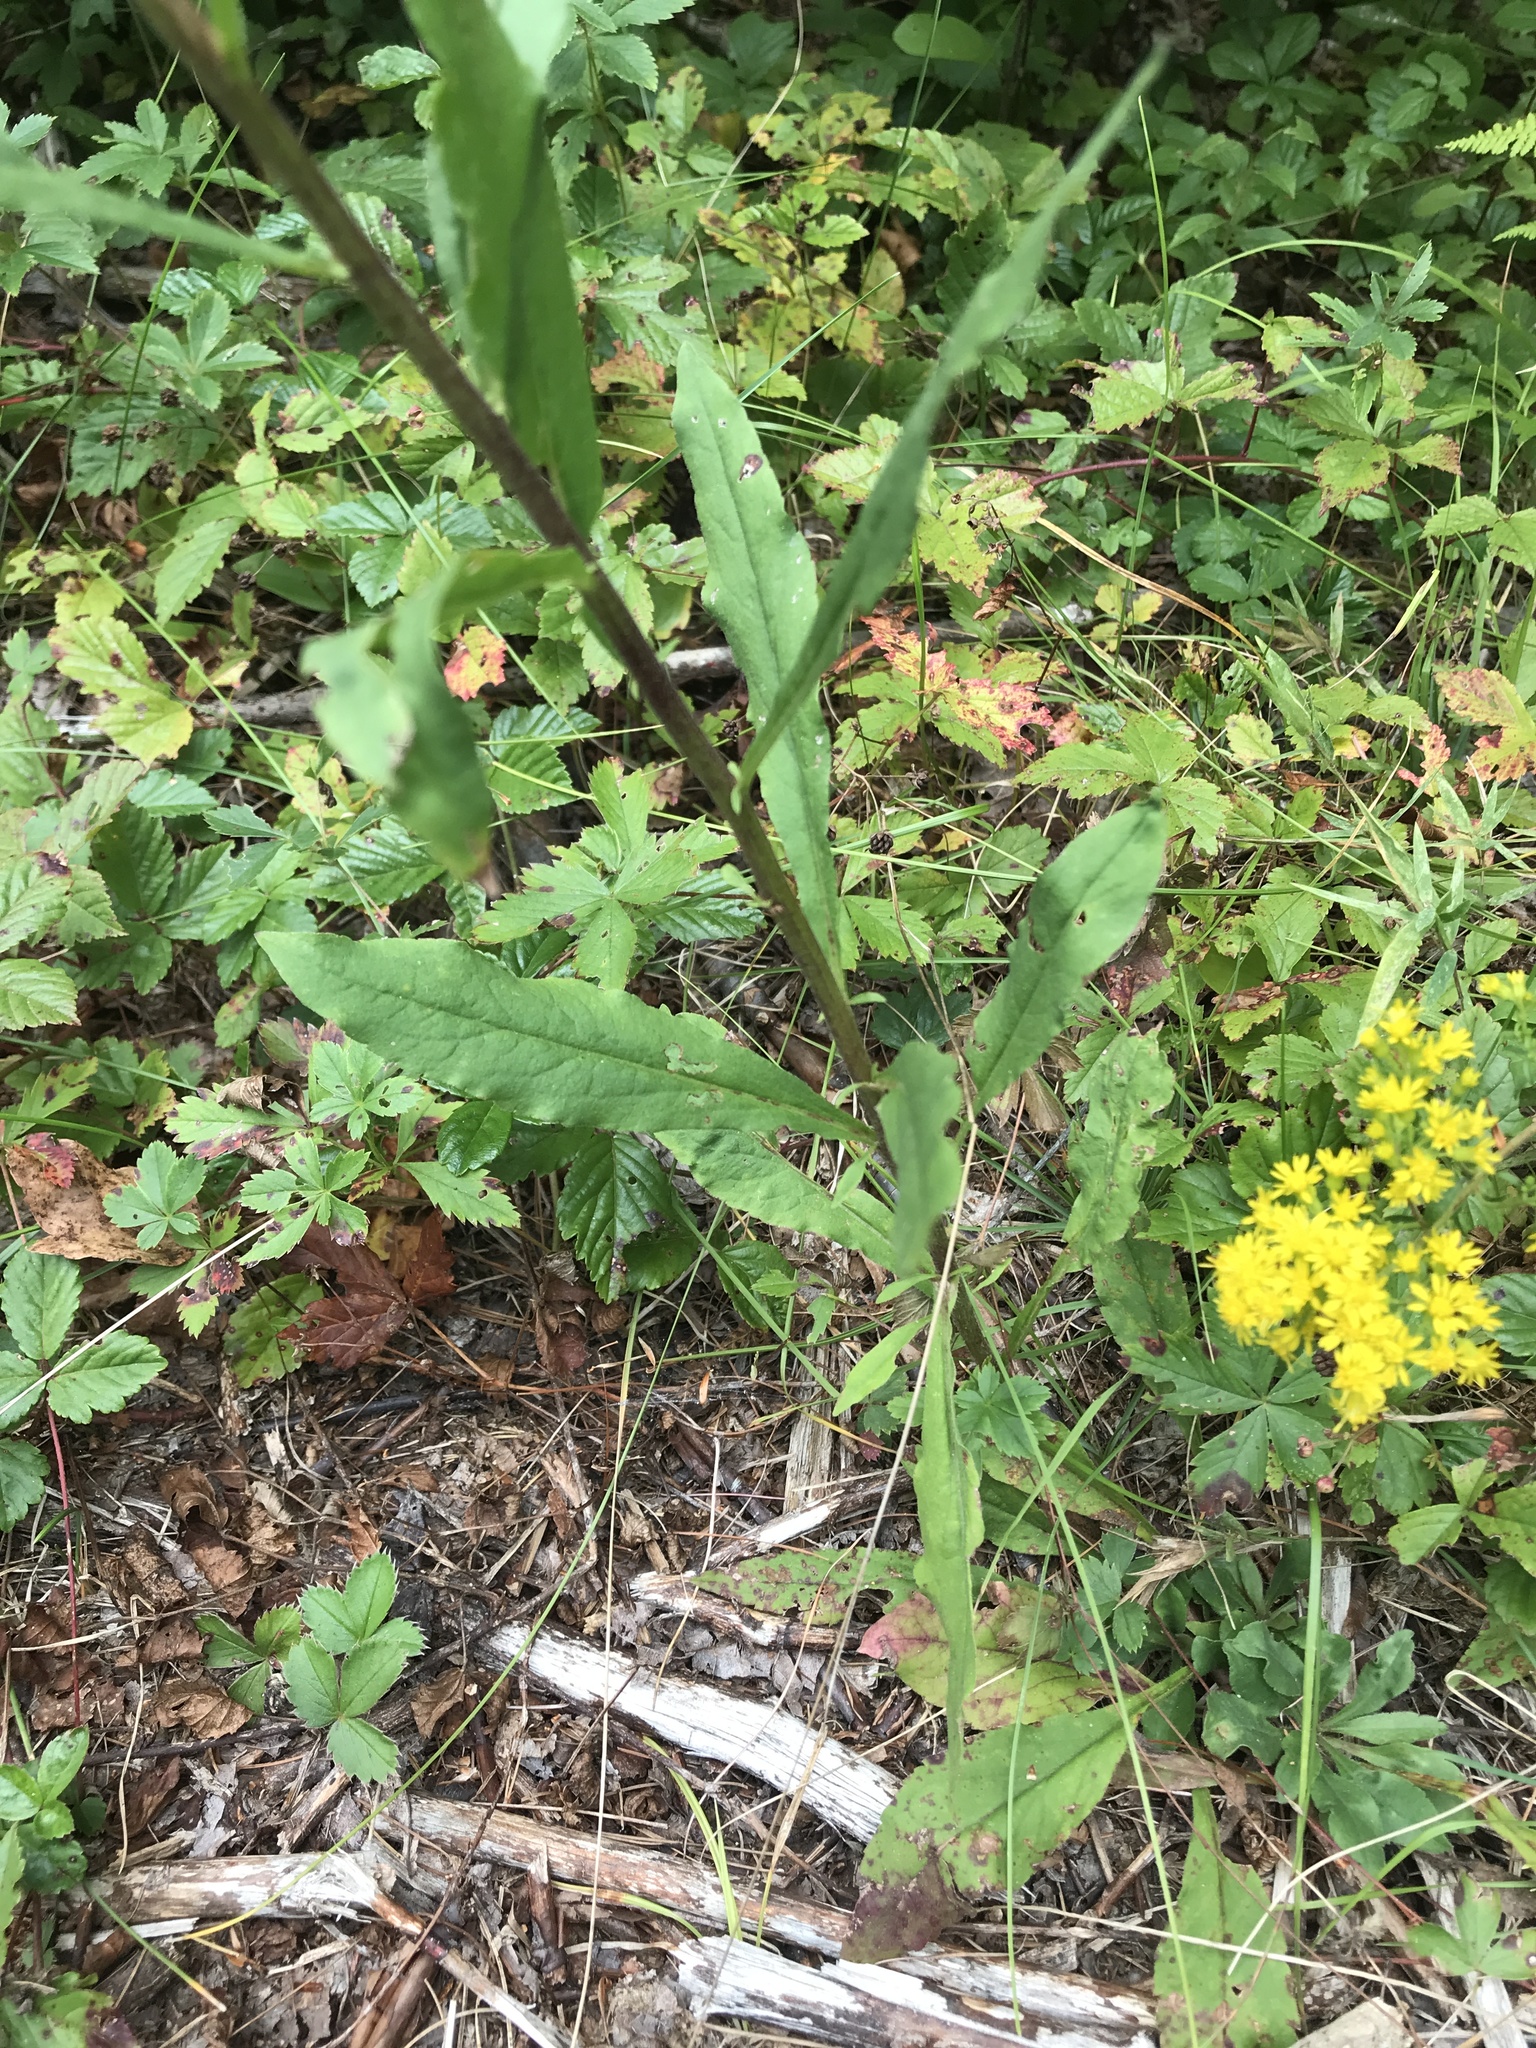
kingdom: Plantae
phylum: Tracheophyta
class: Magnoliopsida
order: Asterales
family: Asteraceae
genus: Solidago
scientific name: Solidago bicolor
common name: Silverrod
